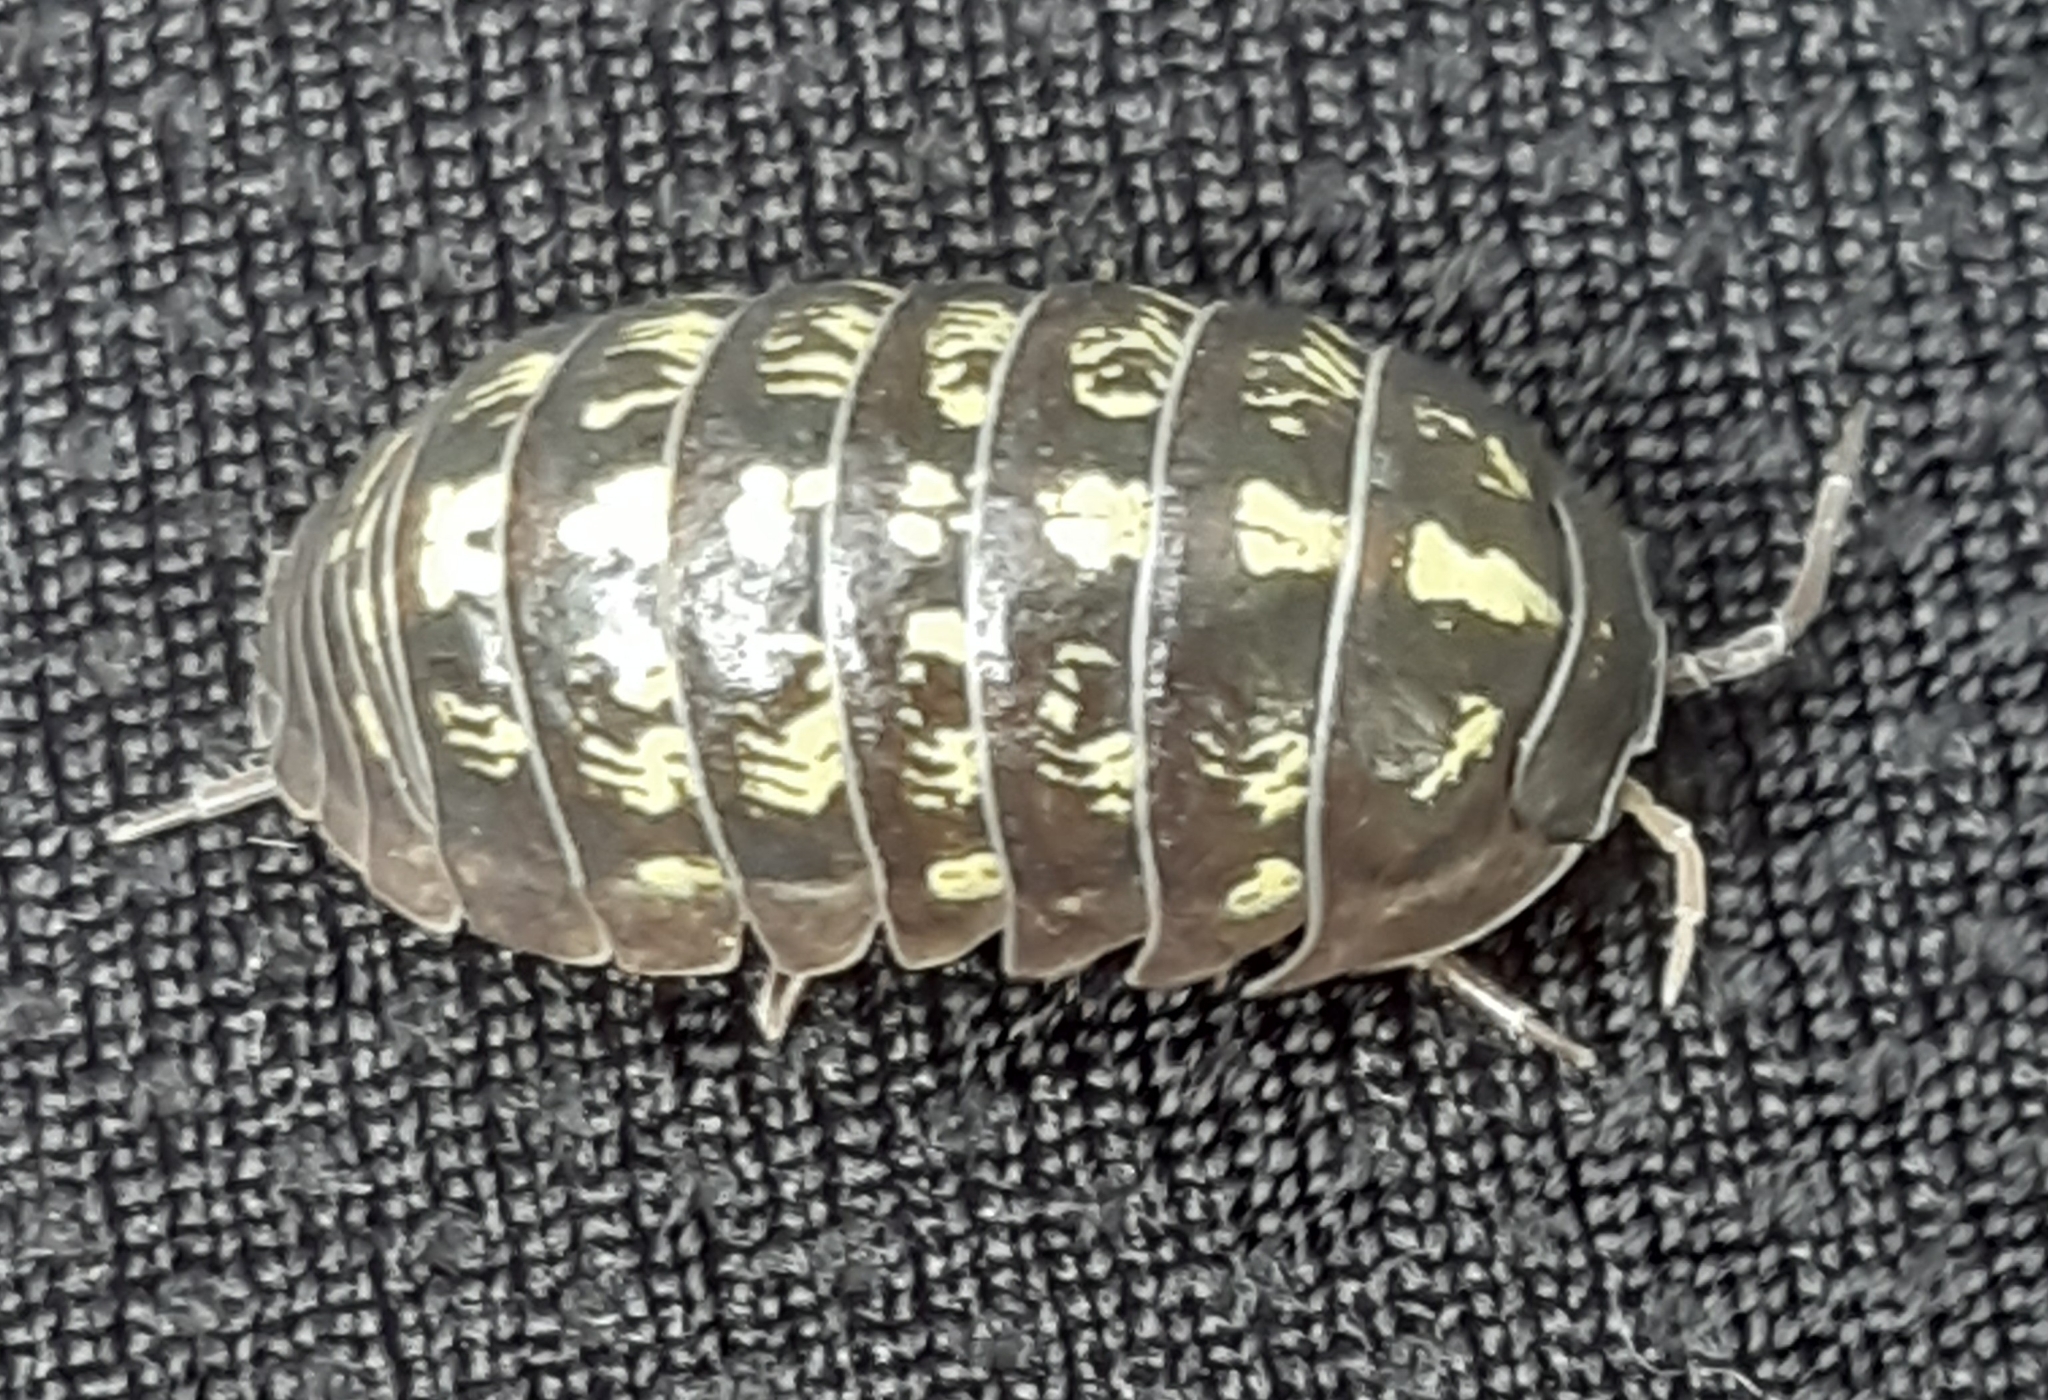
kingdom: Animalia
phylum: Arthropoda
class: Malacostraca
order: Isopoda
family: Armadillidiidae
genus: Armadillidium
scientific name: Armadillidium vulgare
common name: Common pill woodlouse
